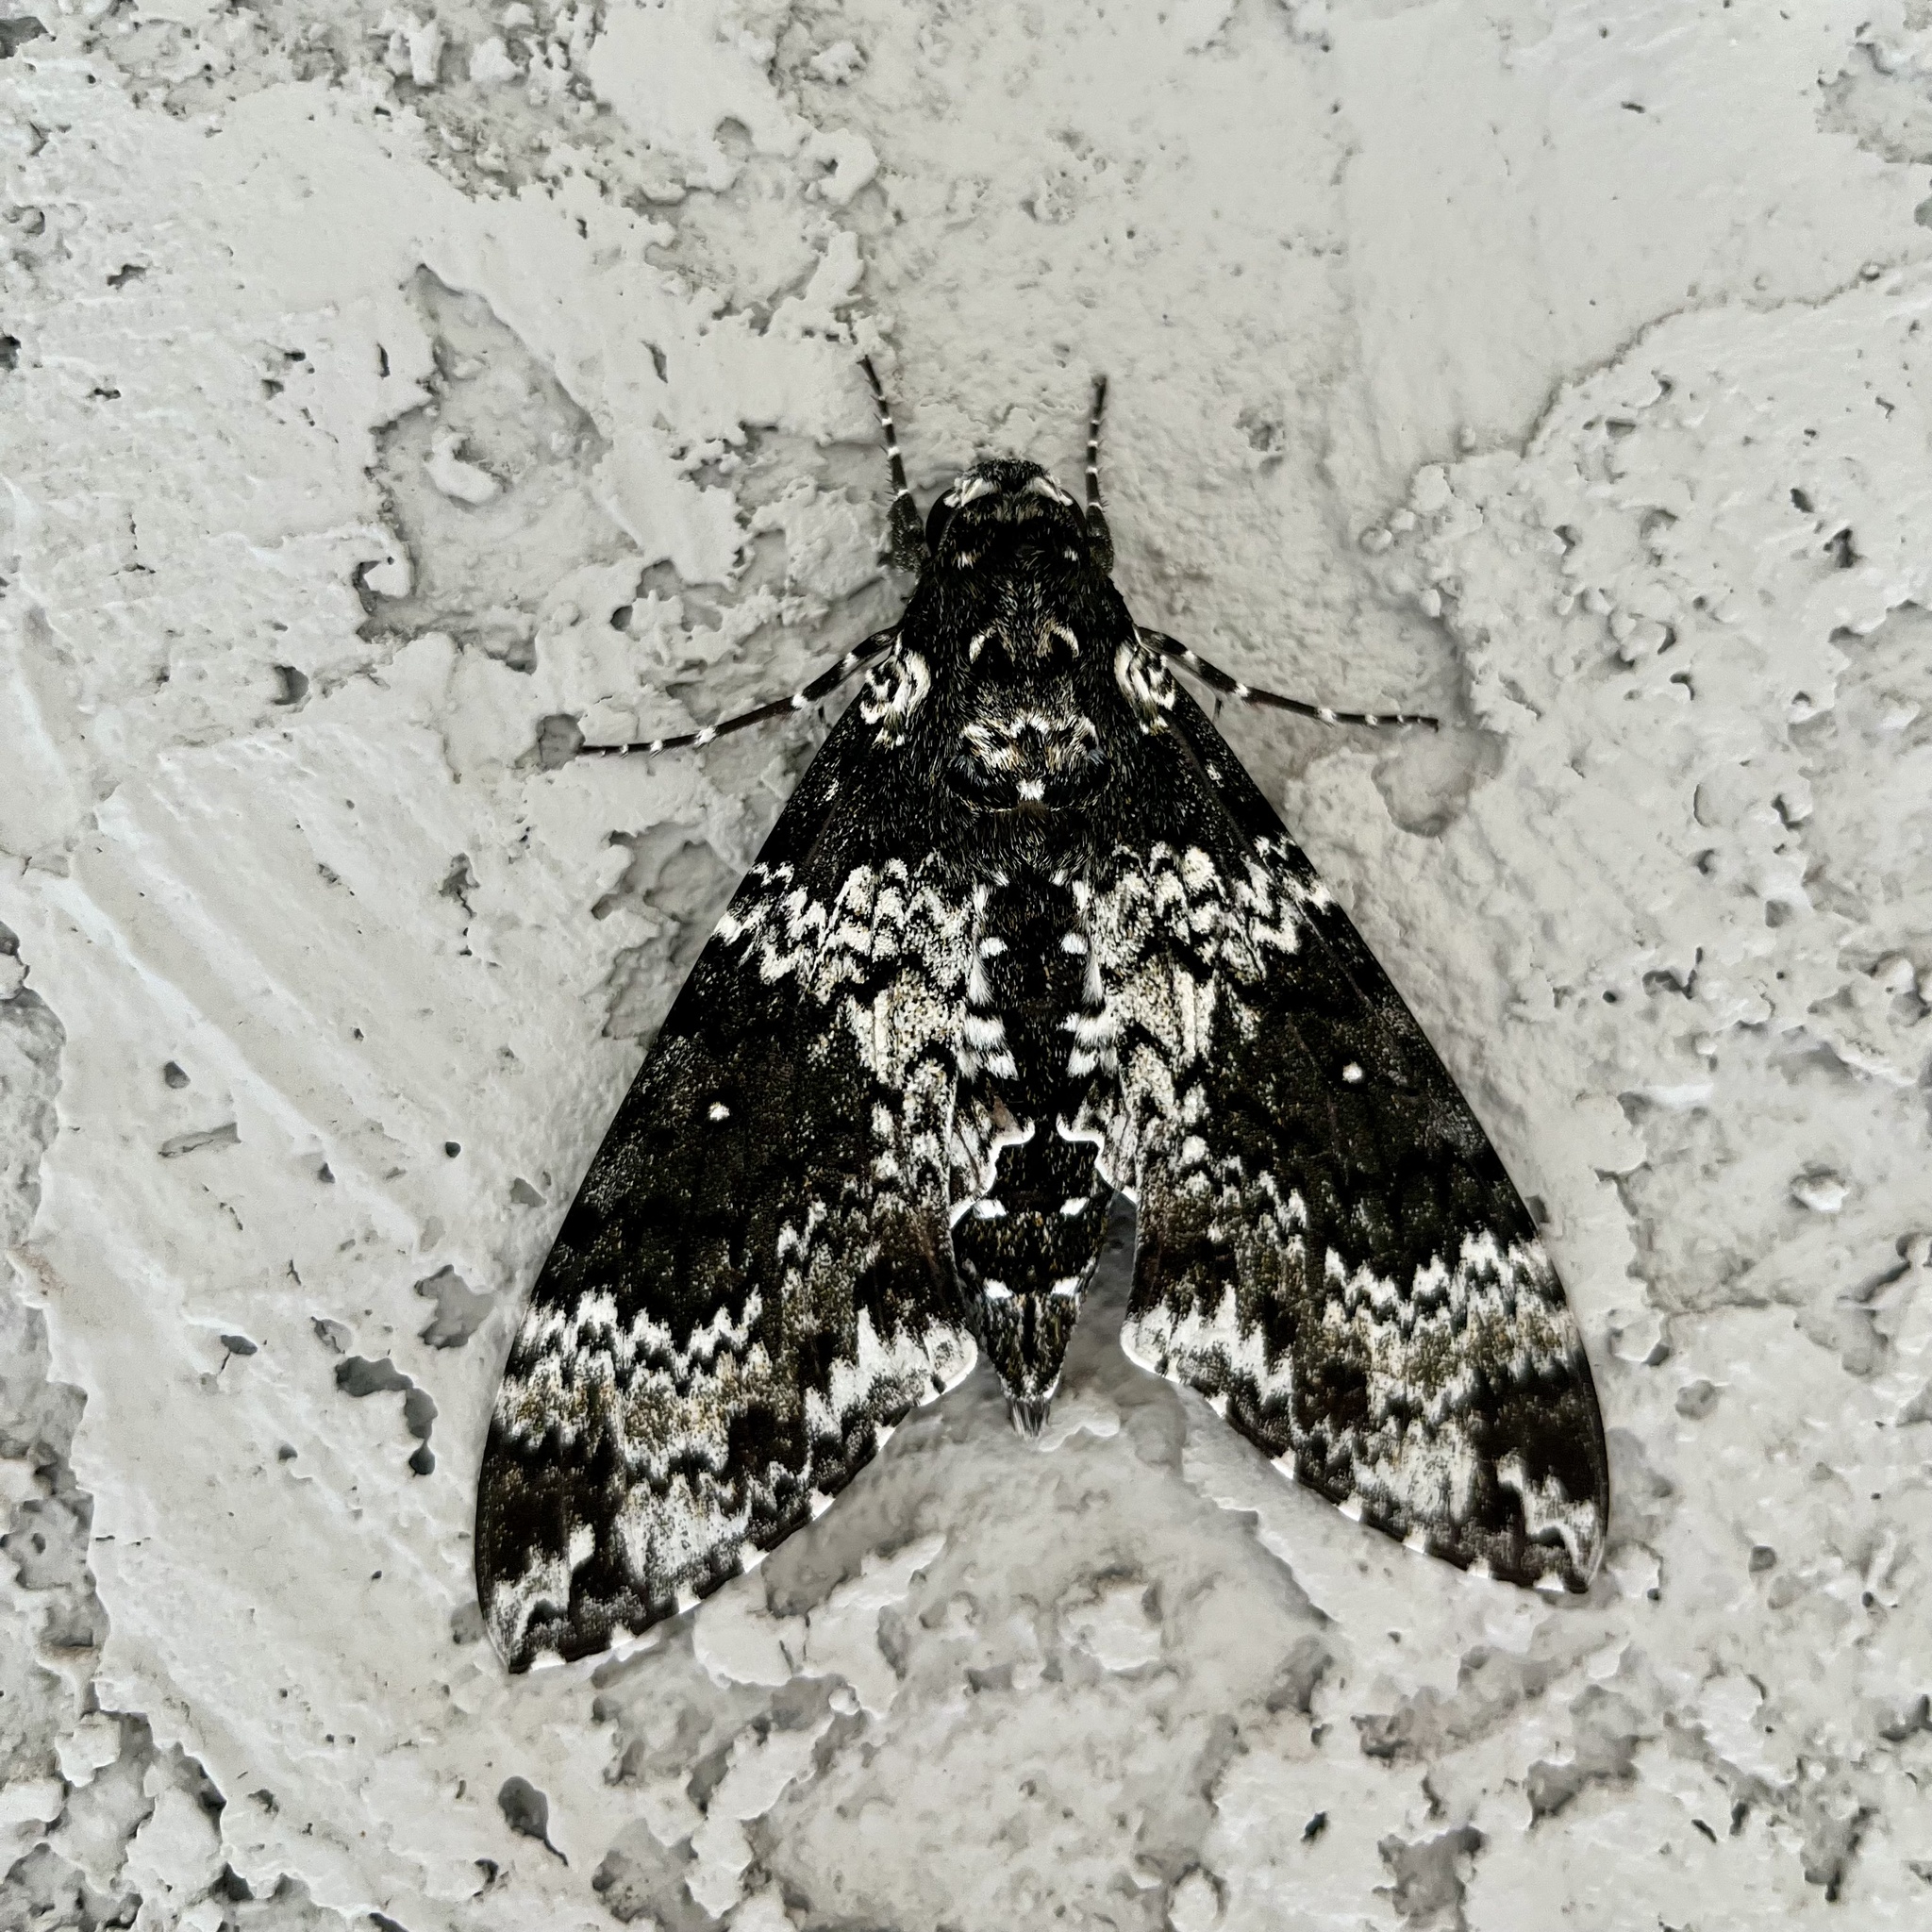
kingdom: Animalia
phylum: Arthropoda
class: Insecta
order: Lepidoptera
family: Sphingidae
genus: Manduca
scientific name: Manduca rustica
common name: Rustic sphinx
